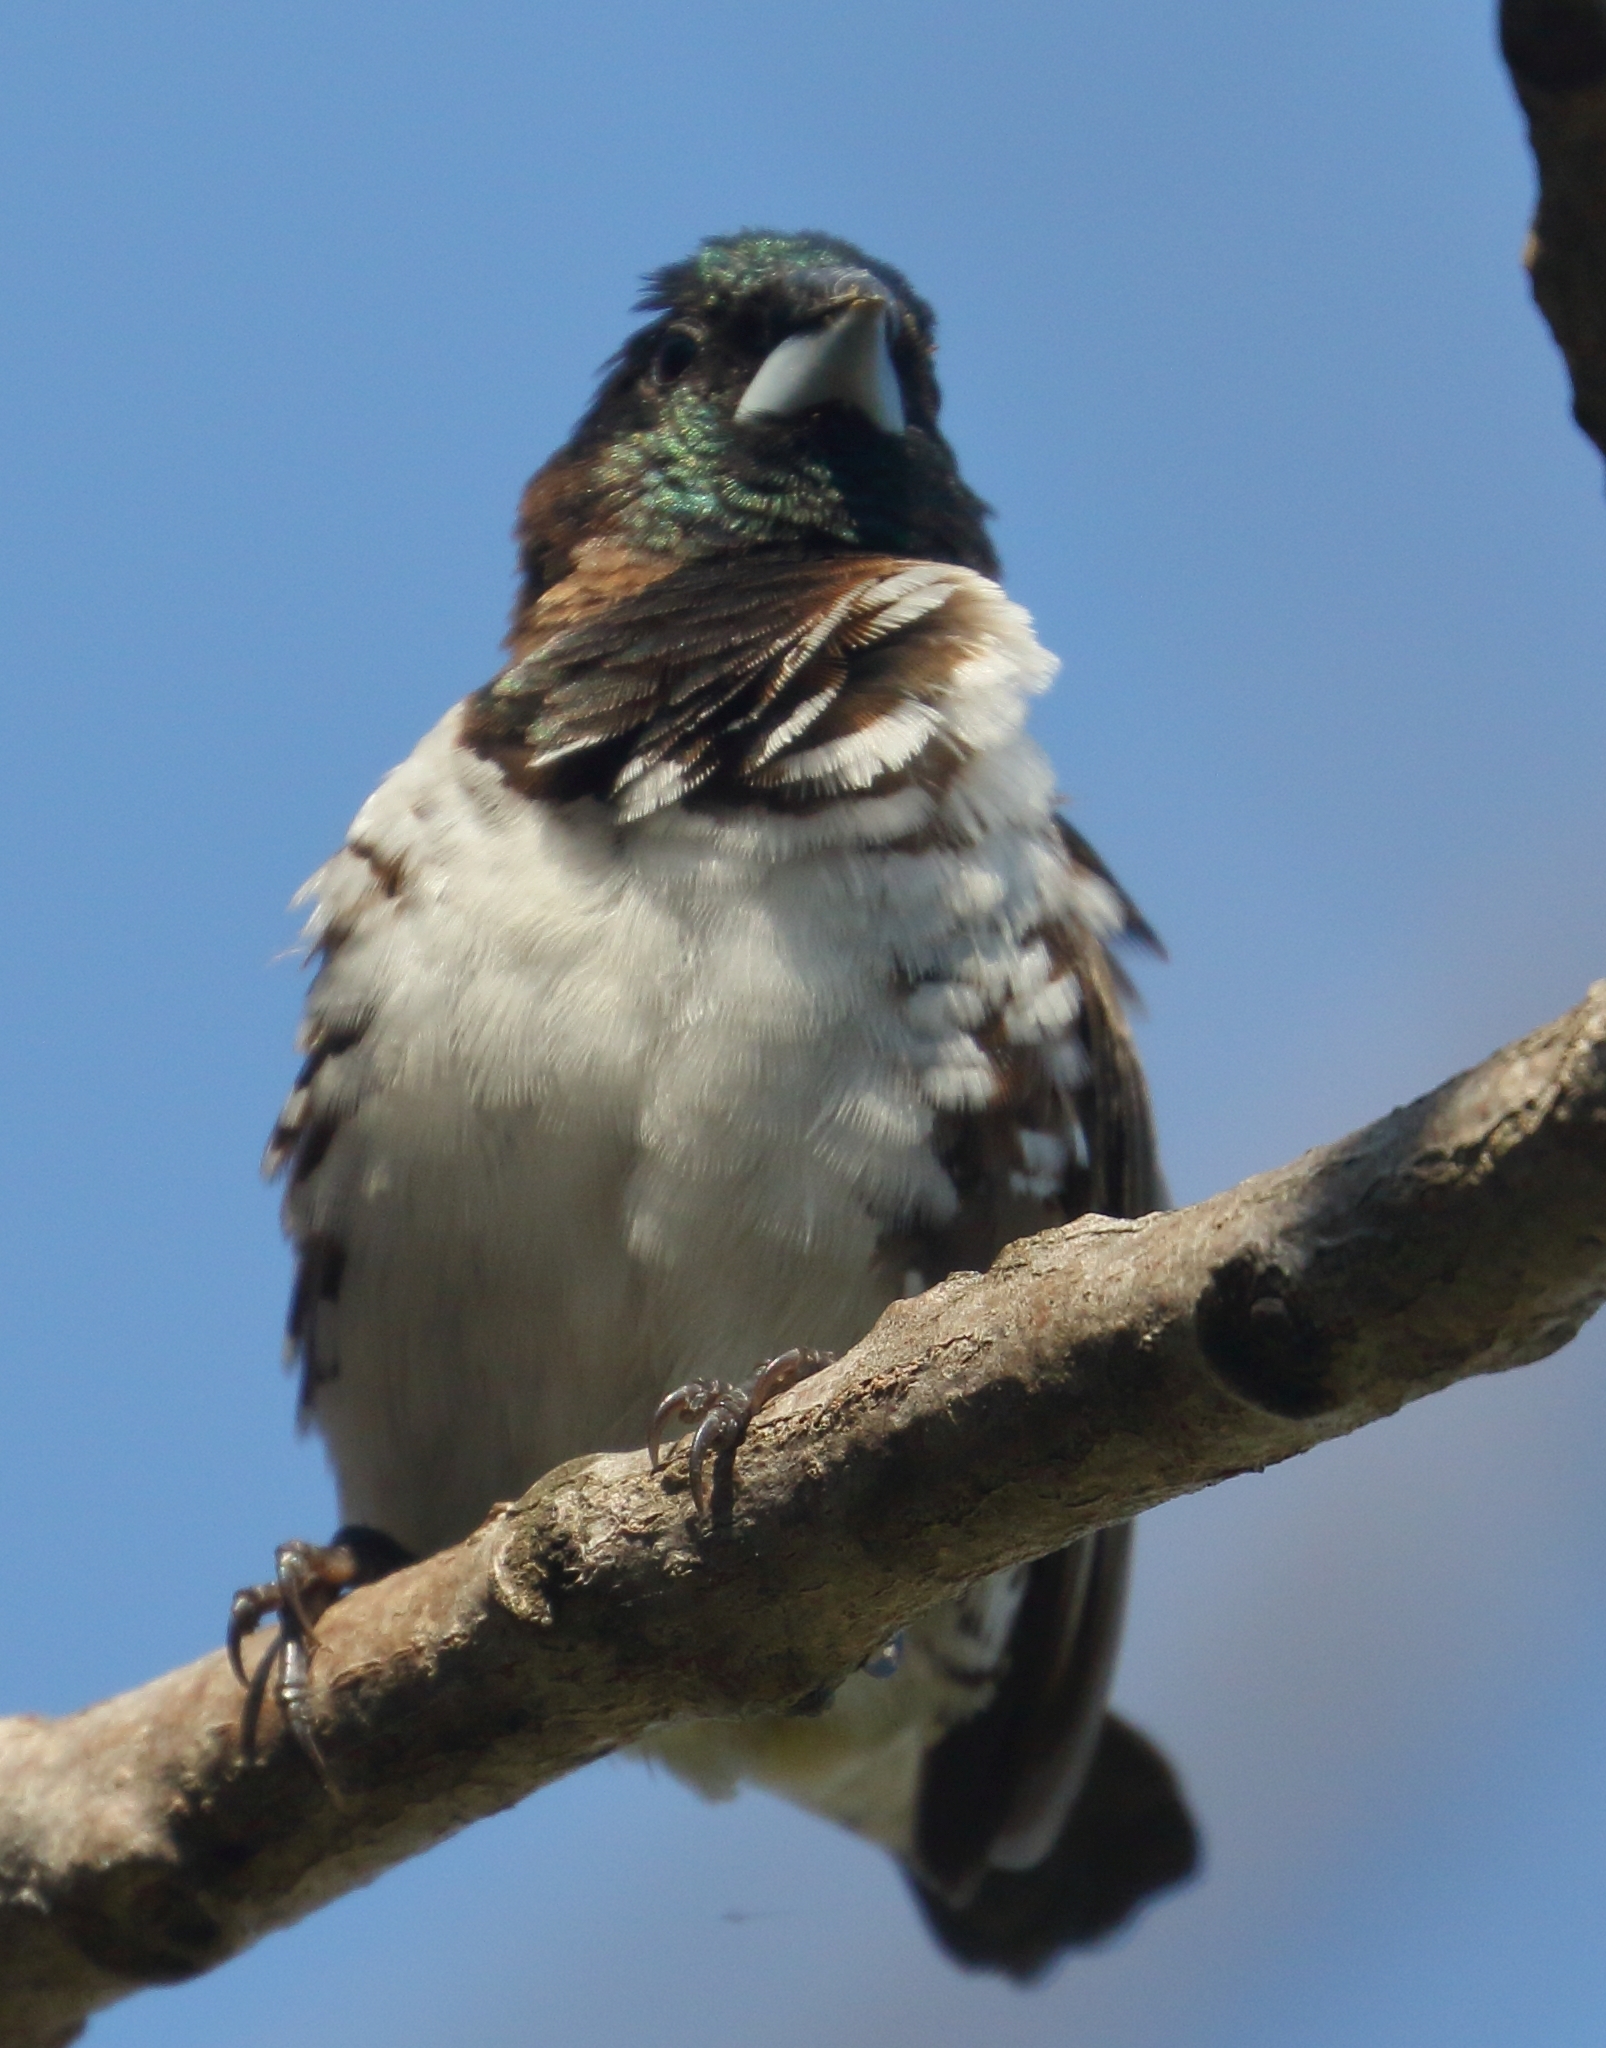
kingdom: Animalia
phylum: Chordata
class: Aves
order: Passeriformes
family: Estrildidae
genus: Lonchura
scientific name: Lonchura cucullata
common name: Bronze mannikin
